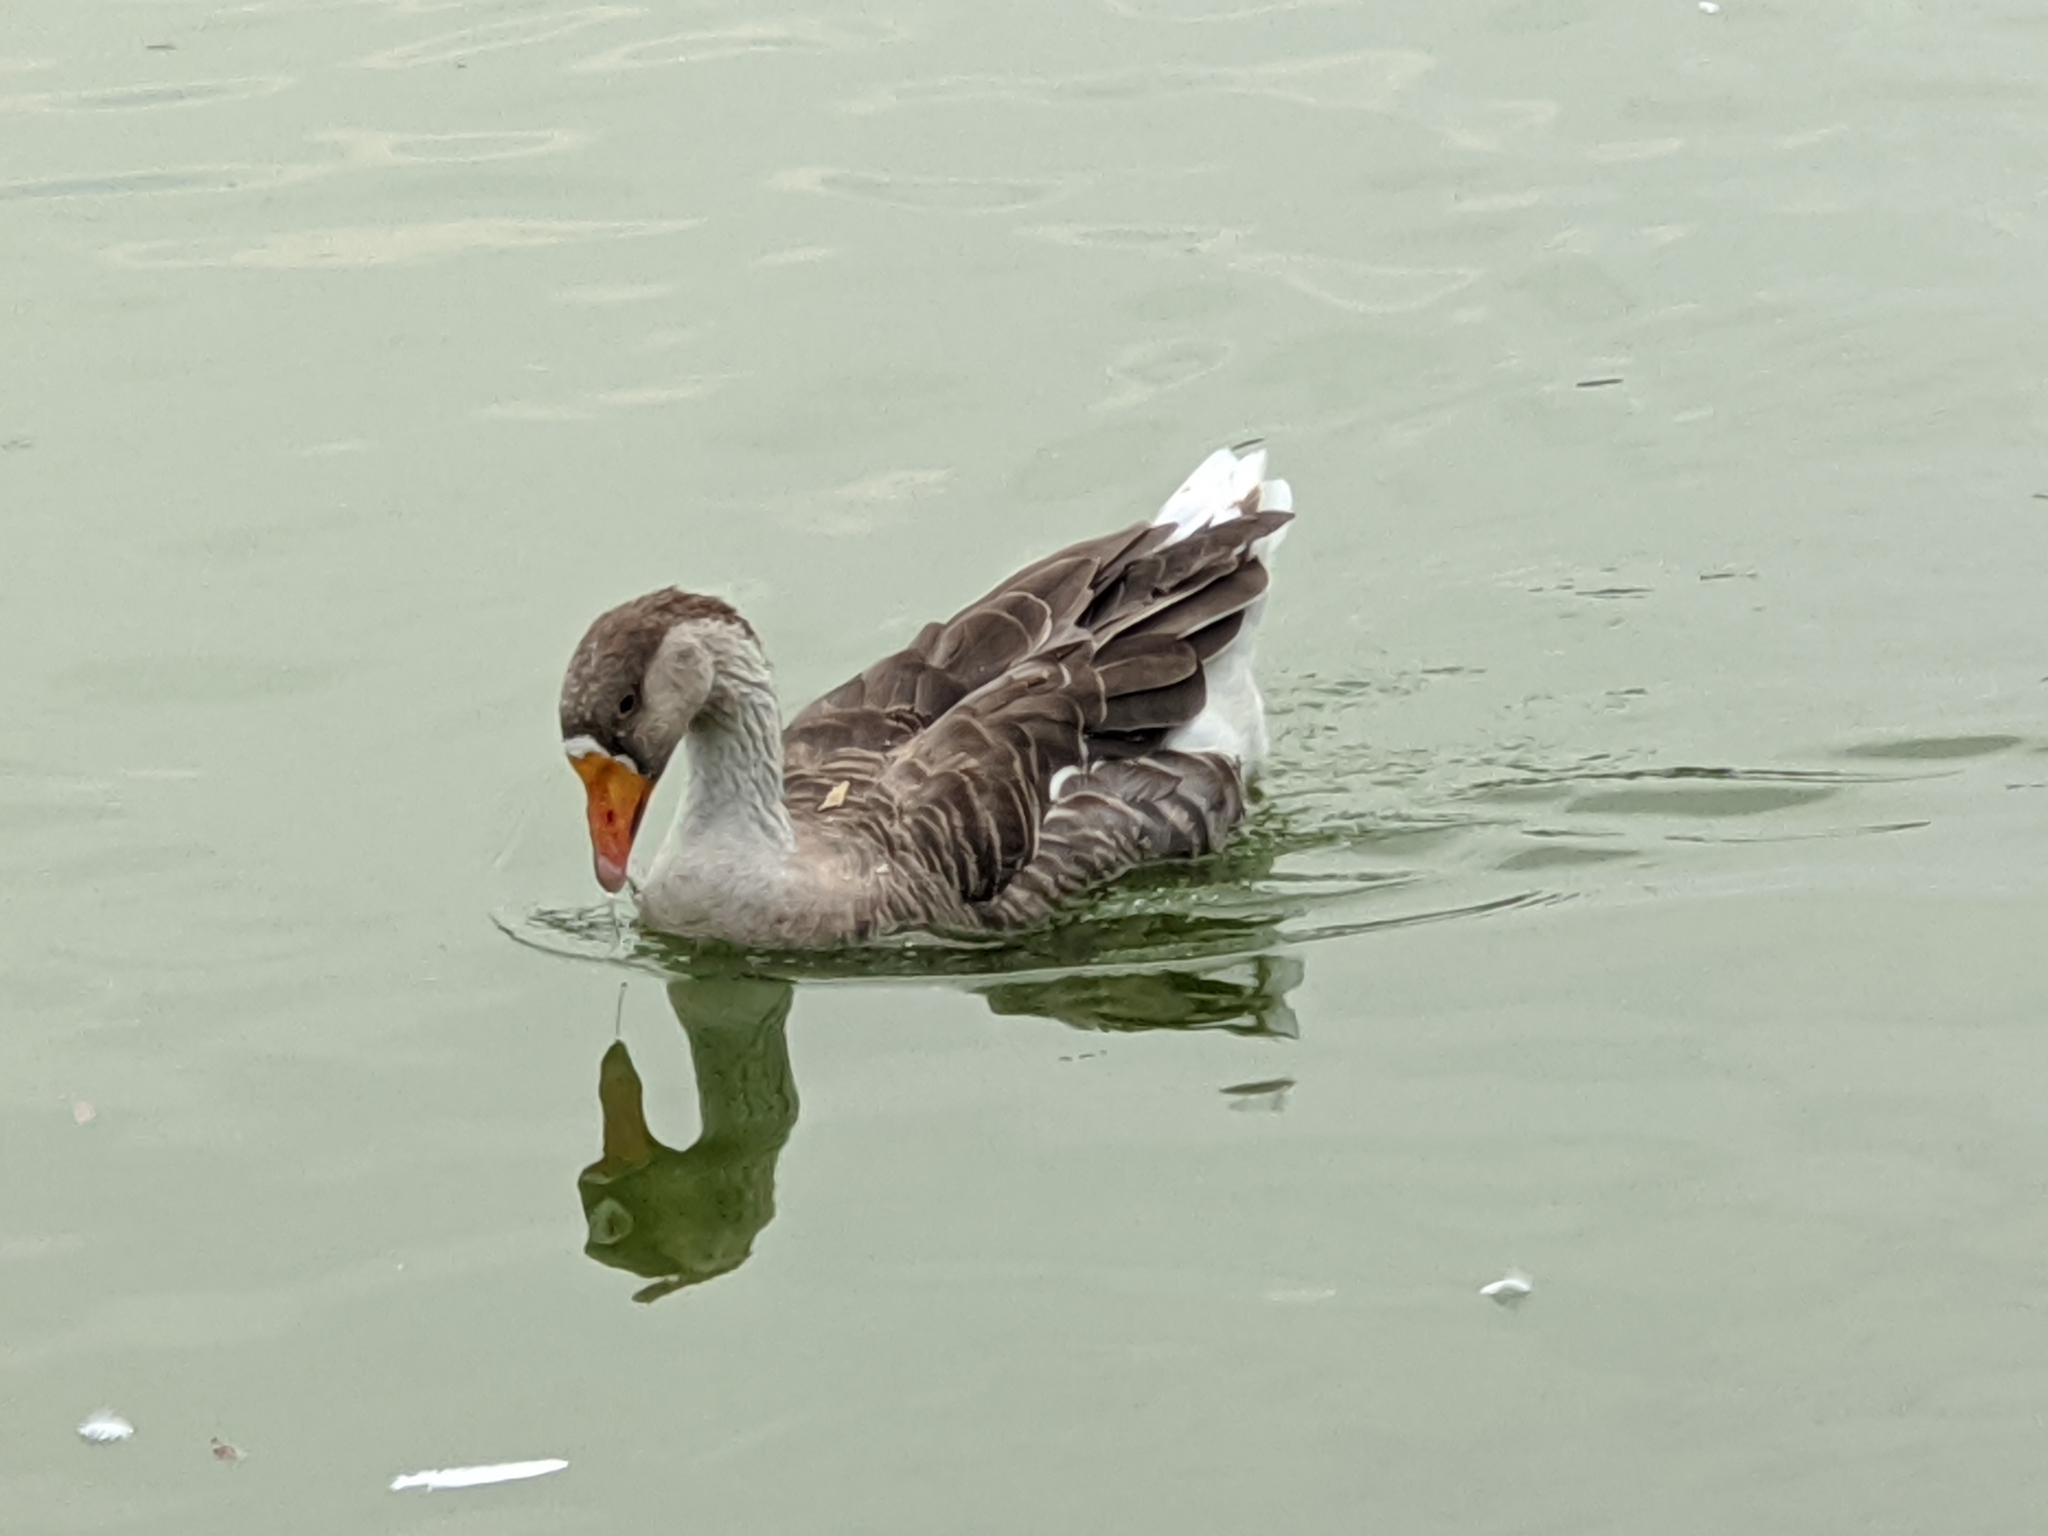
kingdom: Animalia
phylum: Chordata
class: Aves
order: Anseriformes
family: Anatidae
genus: Anser
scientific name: Anser
